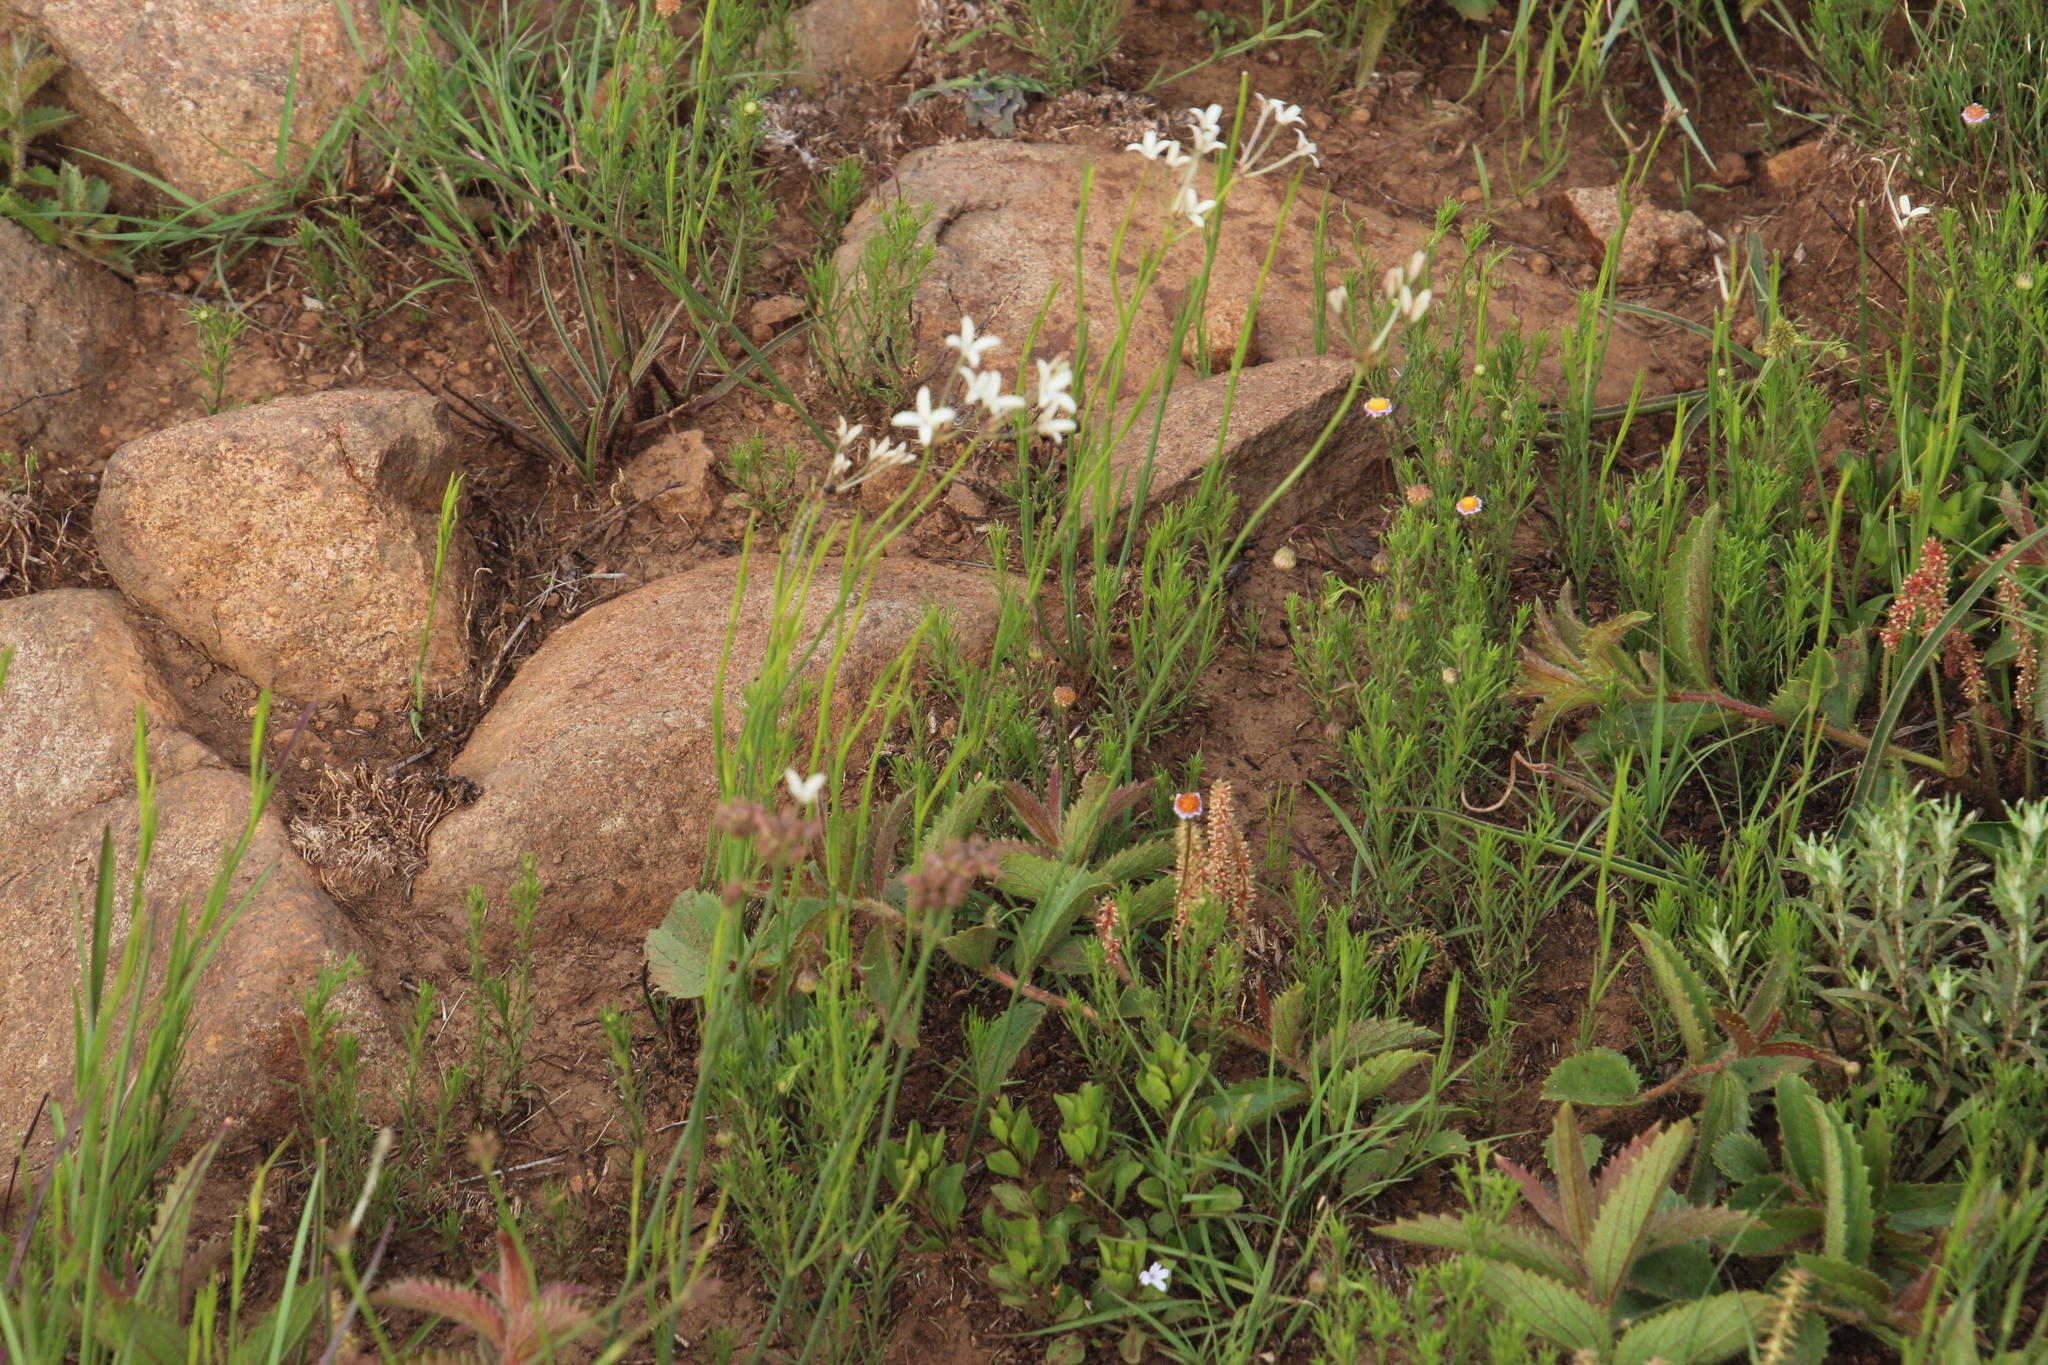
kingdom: Plantae
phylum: Tracheophyta
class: Magnoliopsida
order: Gentianales
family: Rubiaceae
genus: Kohautia
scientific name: Kohautia amatymbica
